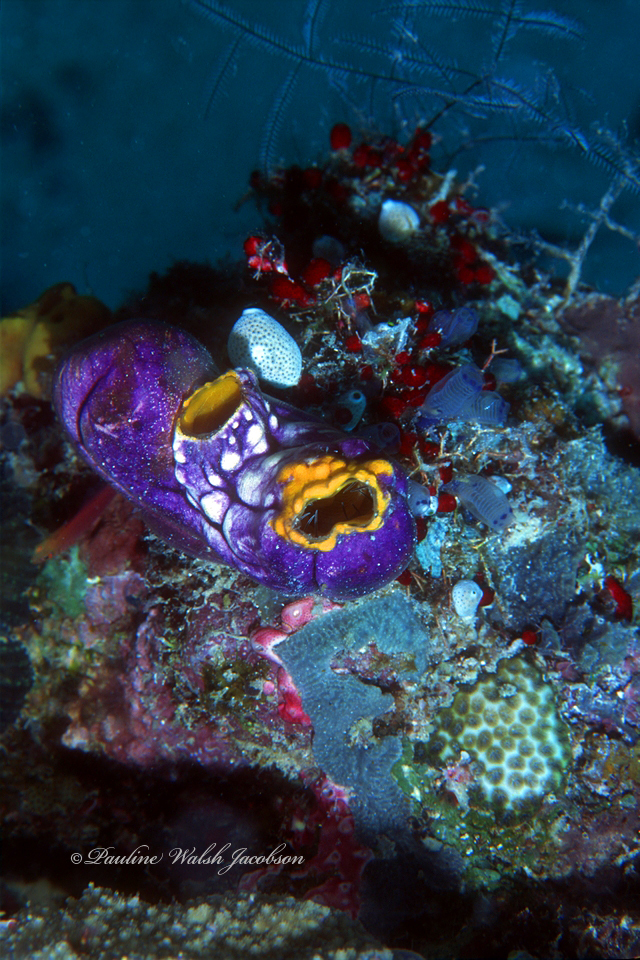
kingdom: Animalia
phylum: Chordata
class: Ascidiacea
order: Stolidobranchia
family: Styelidae
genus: Polycarpa
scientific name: Polycarpa aurata
